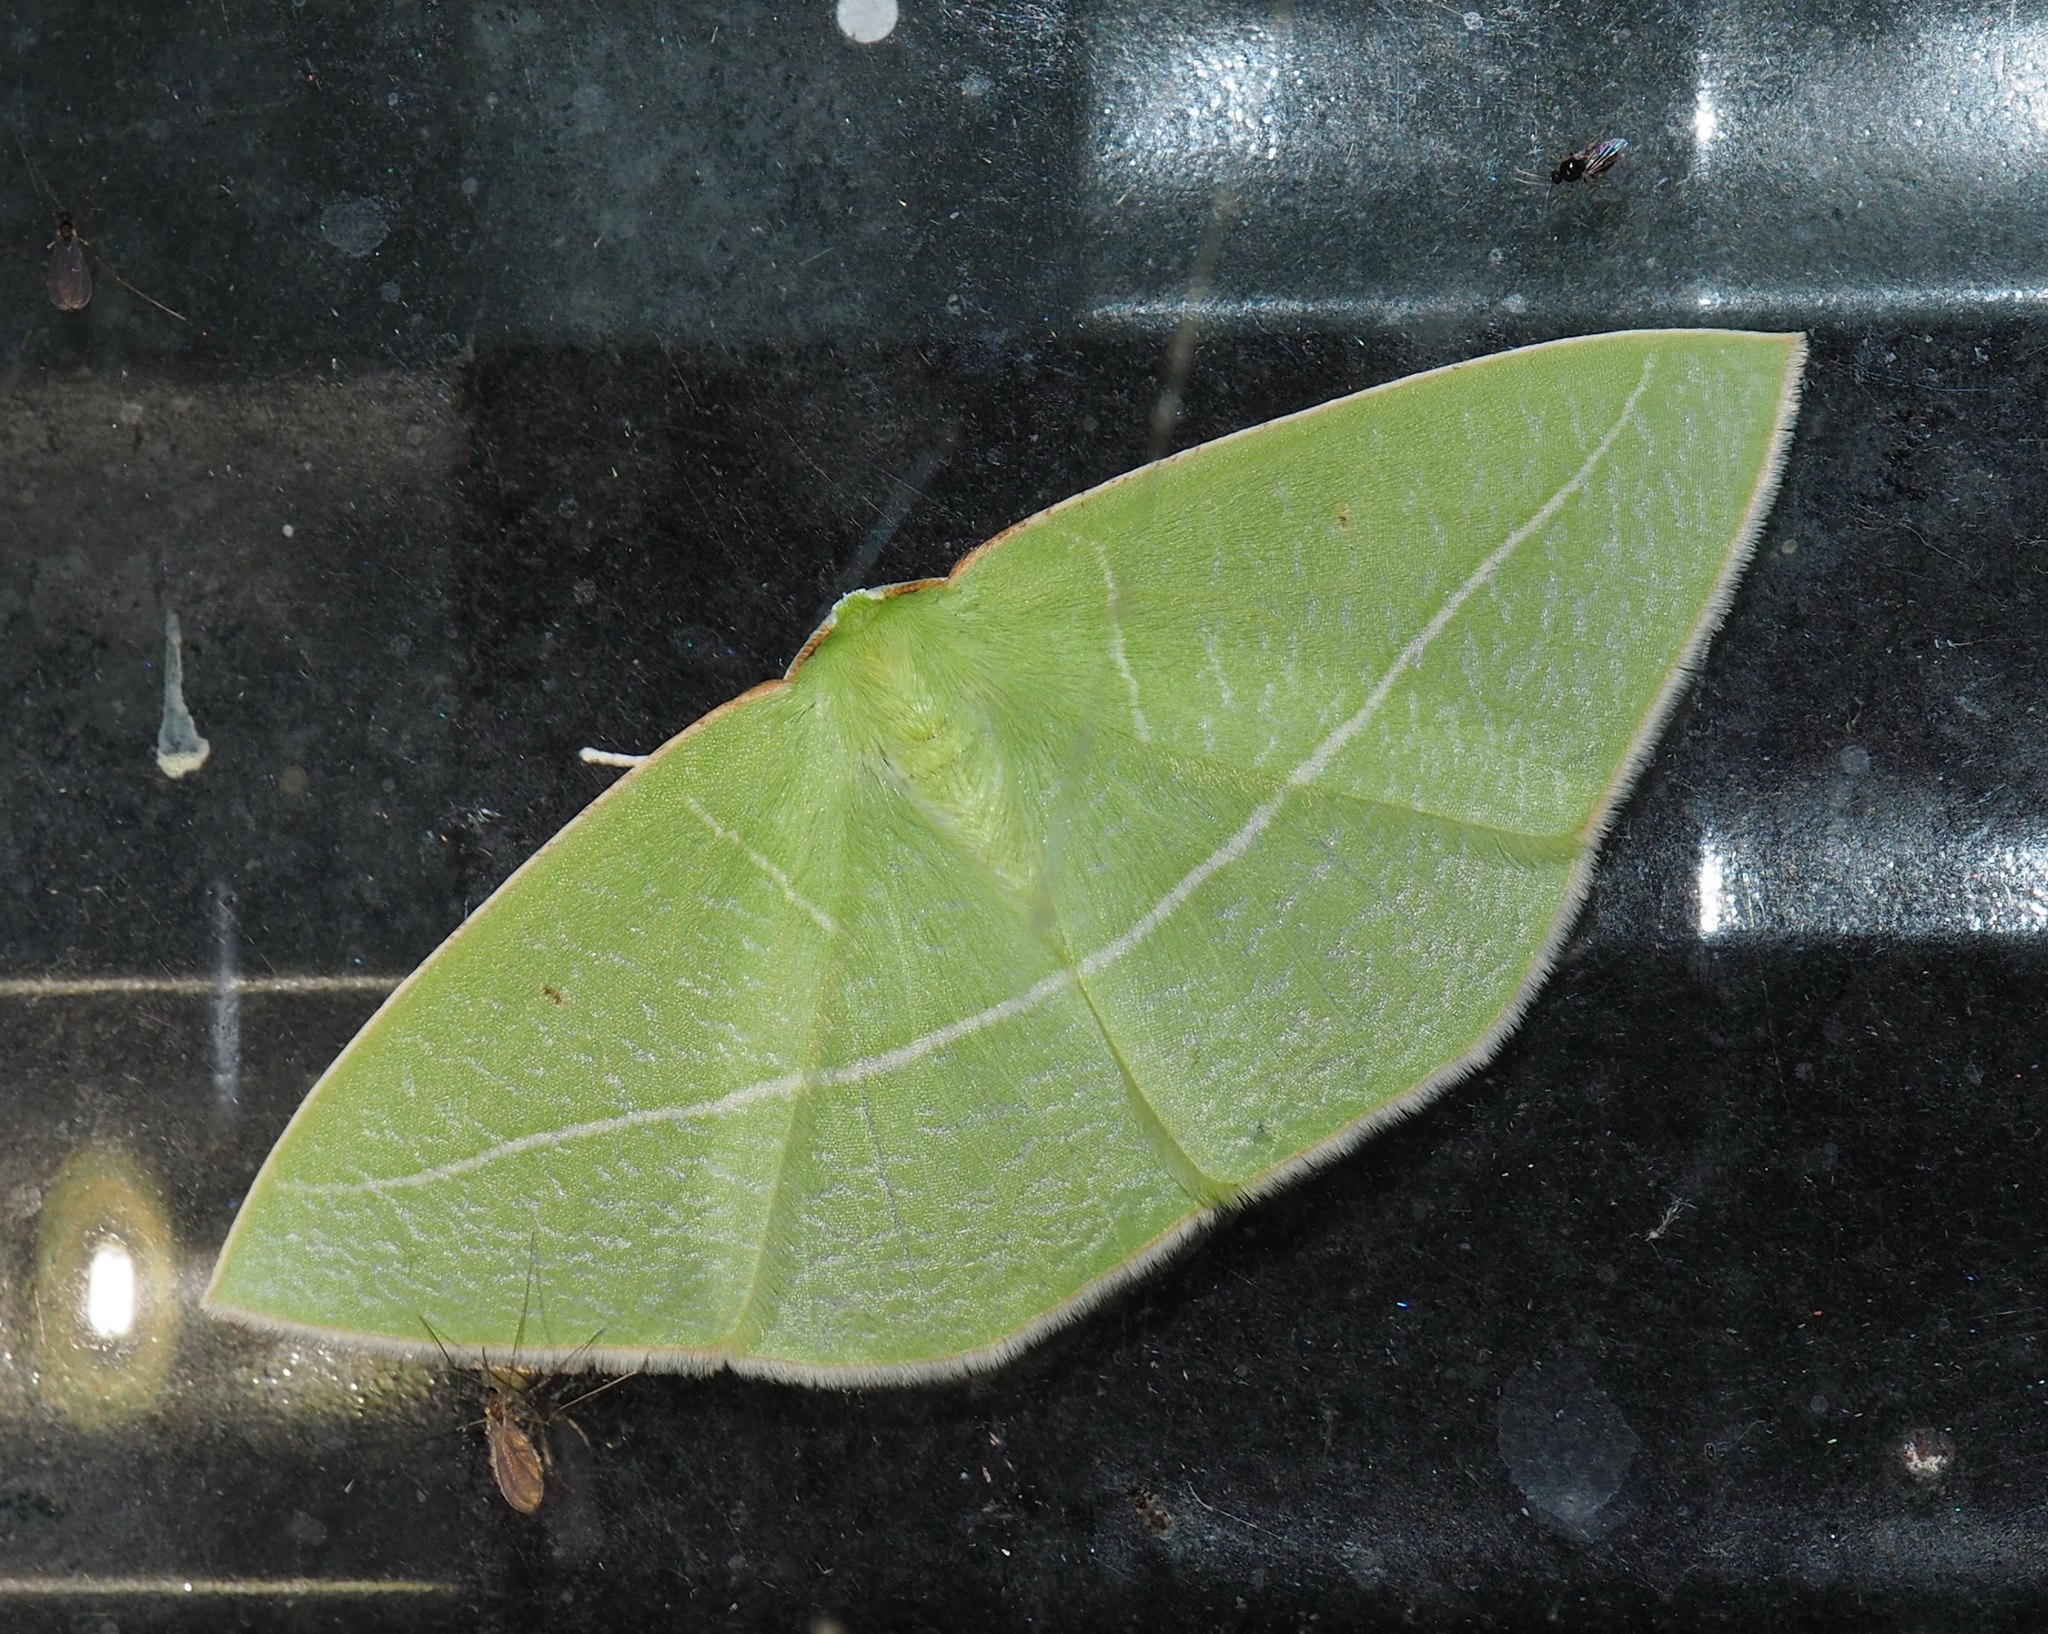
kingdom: Animalia
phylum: Arthropoda
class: Insecta
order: Lepidoptera
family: Geometridae
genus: Tanaoctenia
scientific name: Tanaoctenia haliaria
